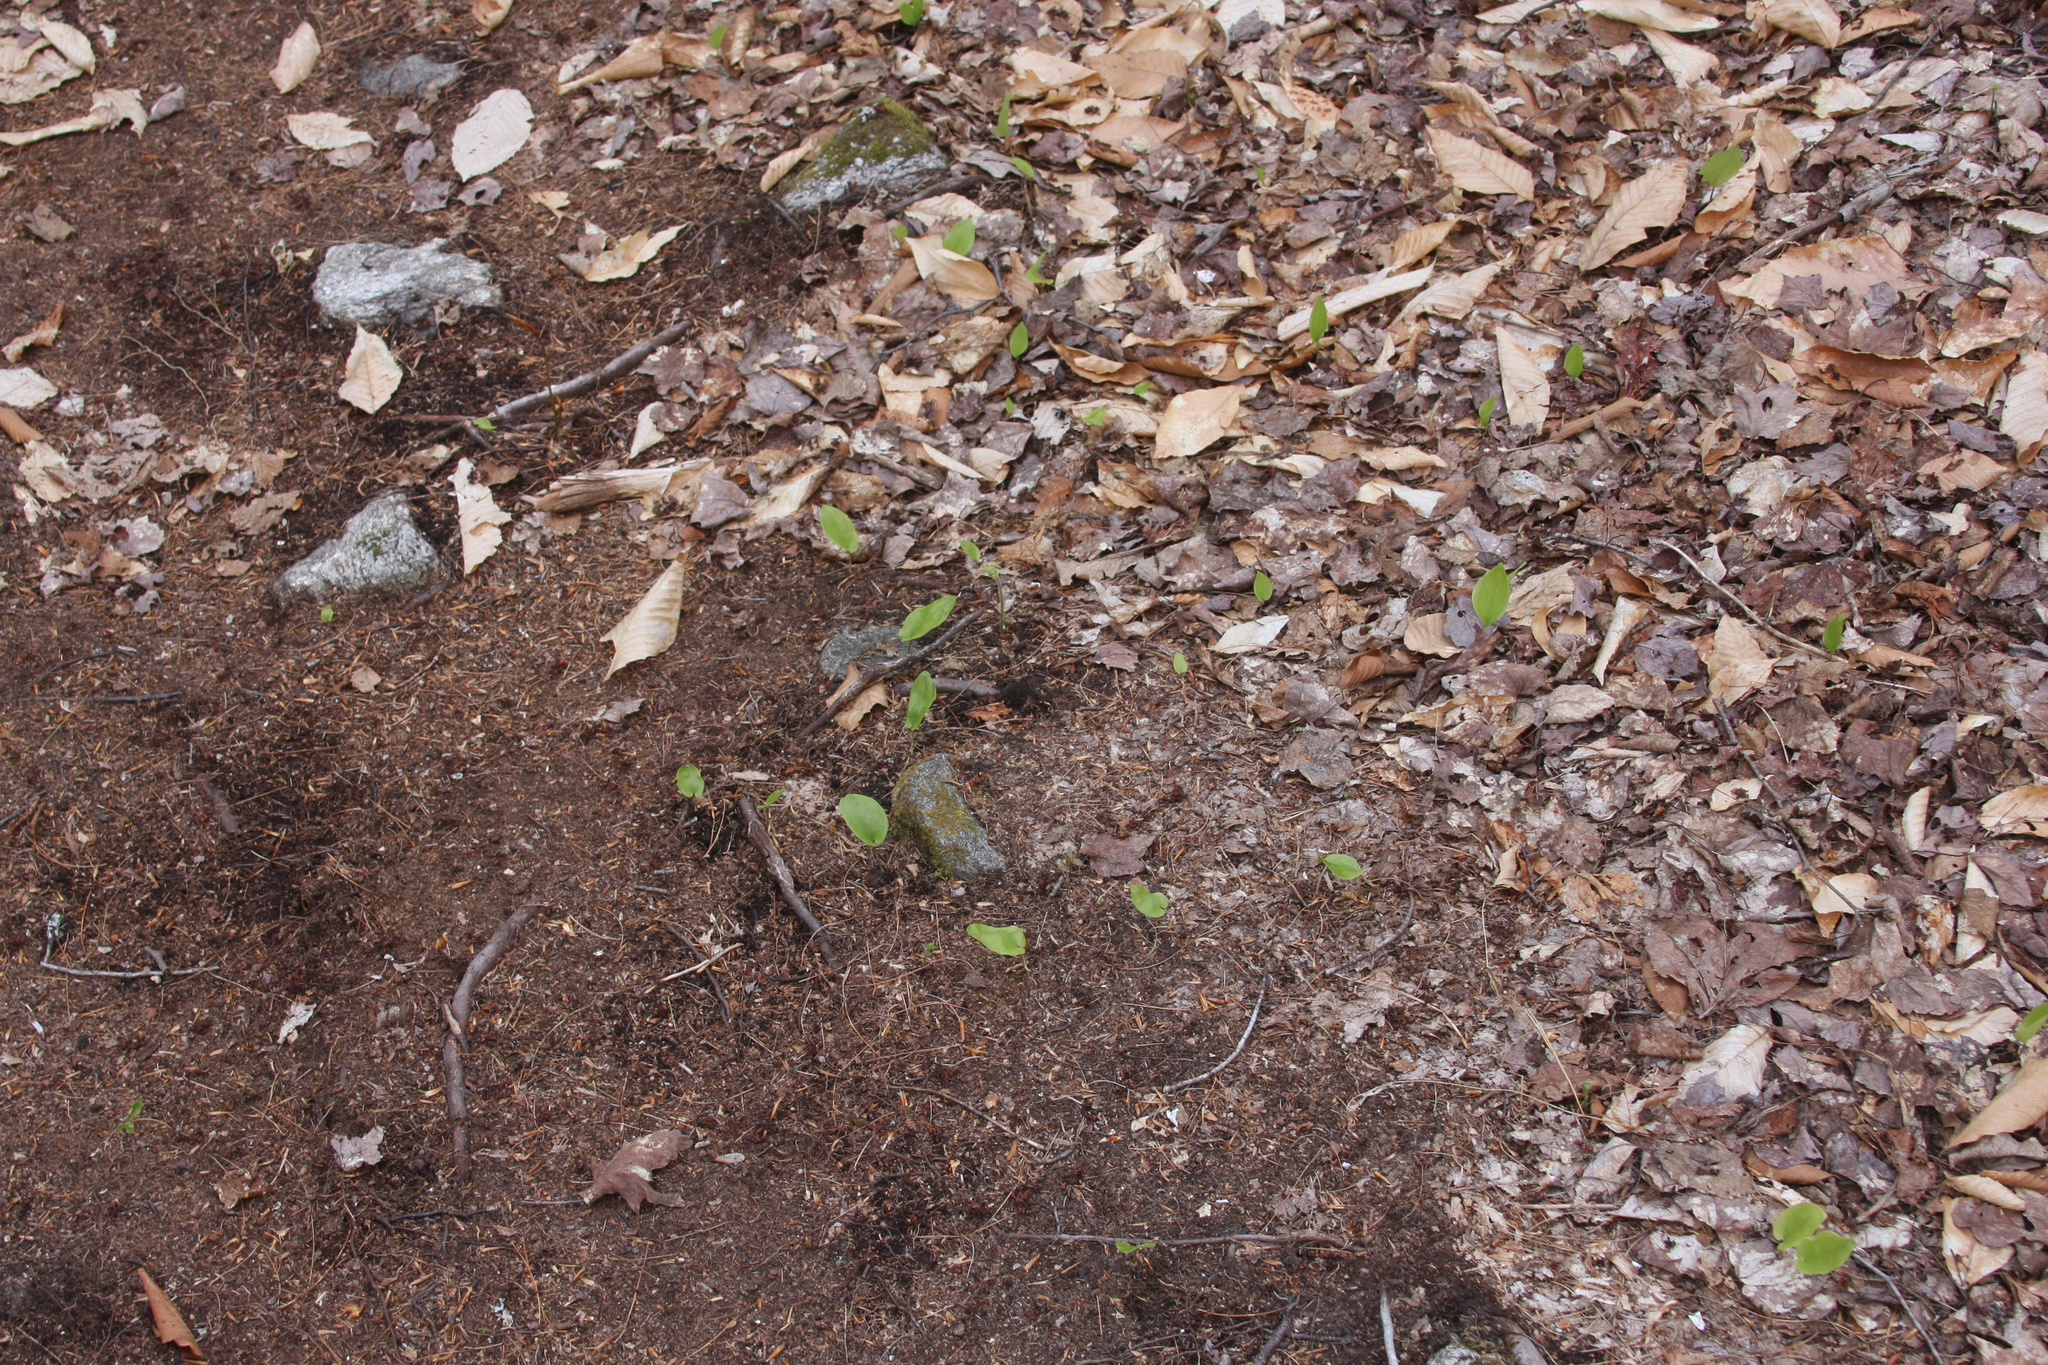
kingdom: Plantae
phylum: Tracheophyta
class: Liliopsida
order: Asparagales
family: Asparagaceae
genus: Maianthemum
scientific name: Maianthemum canadense
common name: False lily-of-the-valley
